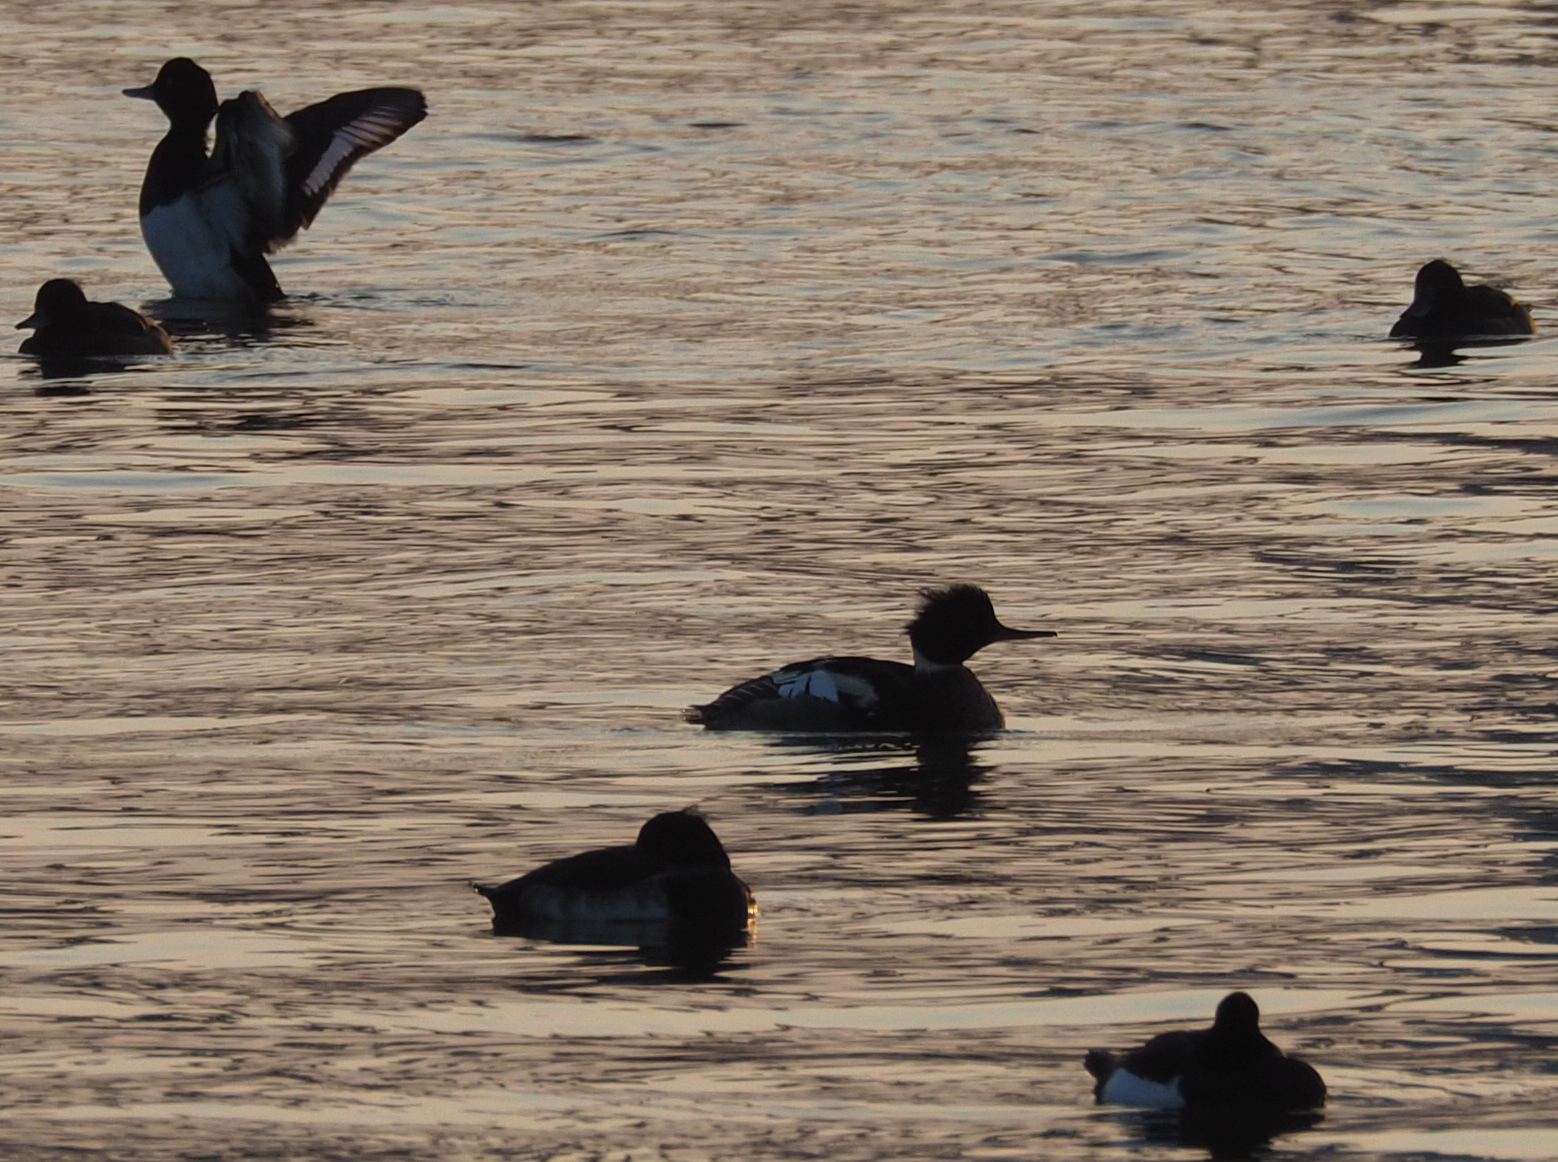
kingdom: Animalia
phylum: Chordata
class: Aves
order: Anseriformes
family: Anatidae
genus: Mergus
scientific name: Mergus serrator
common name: Red-breasted merganser
